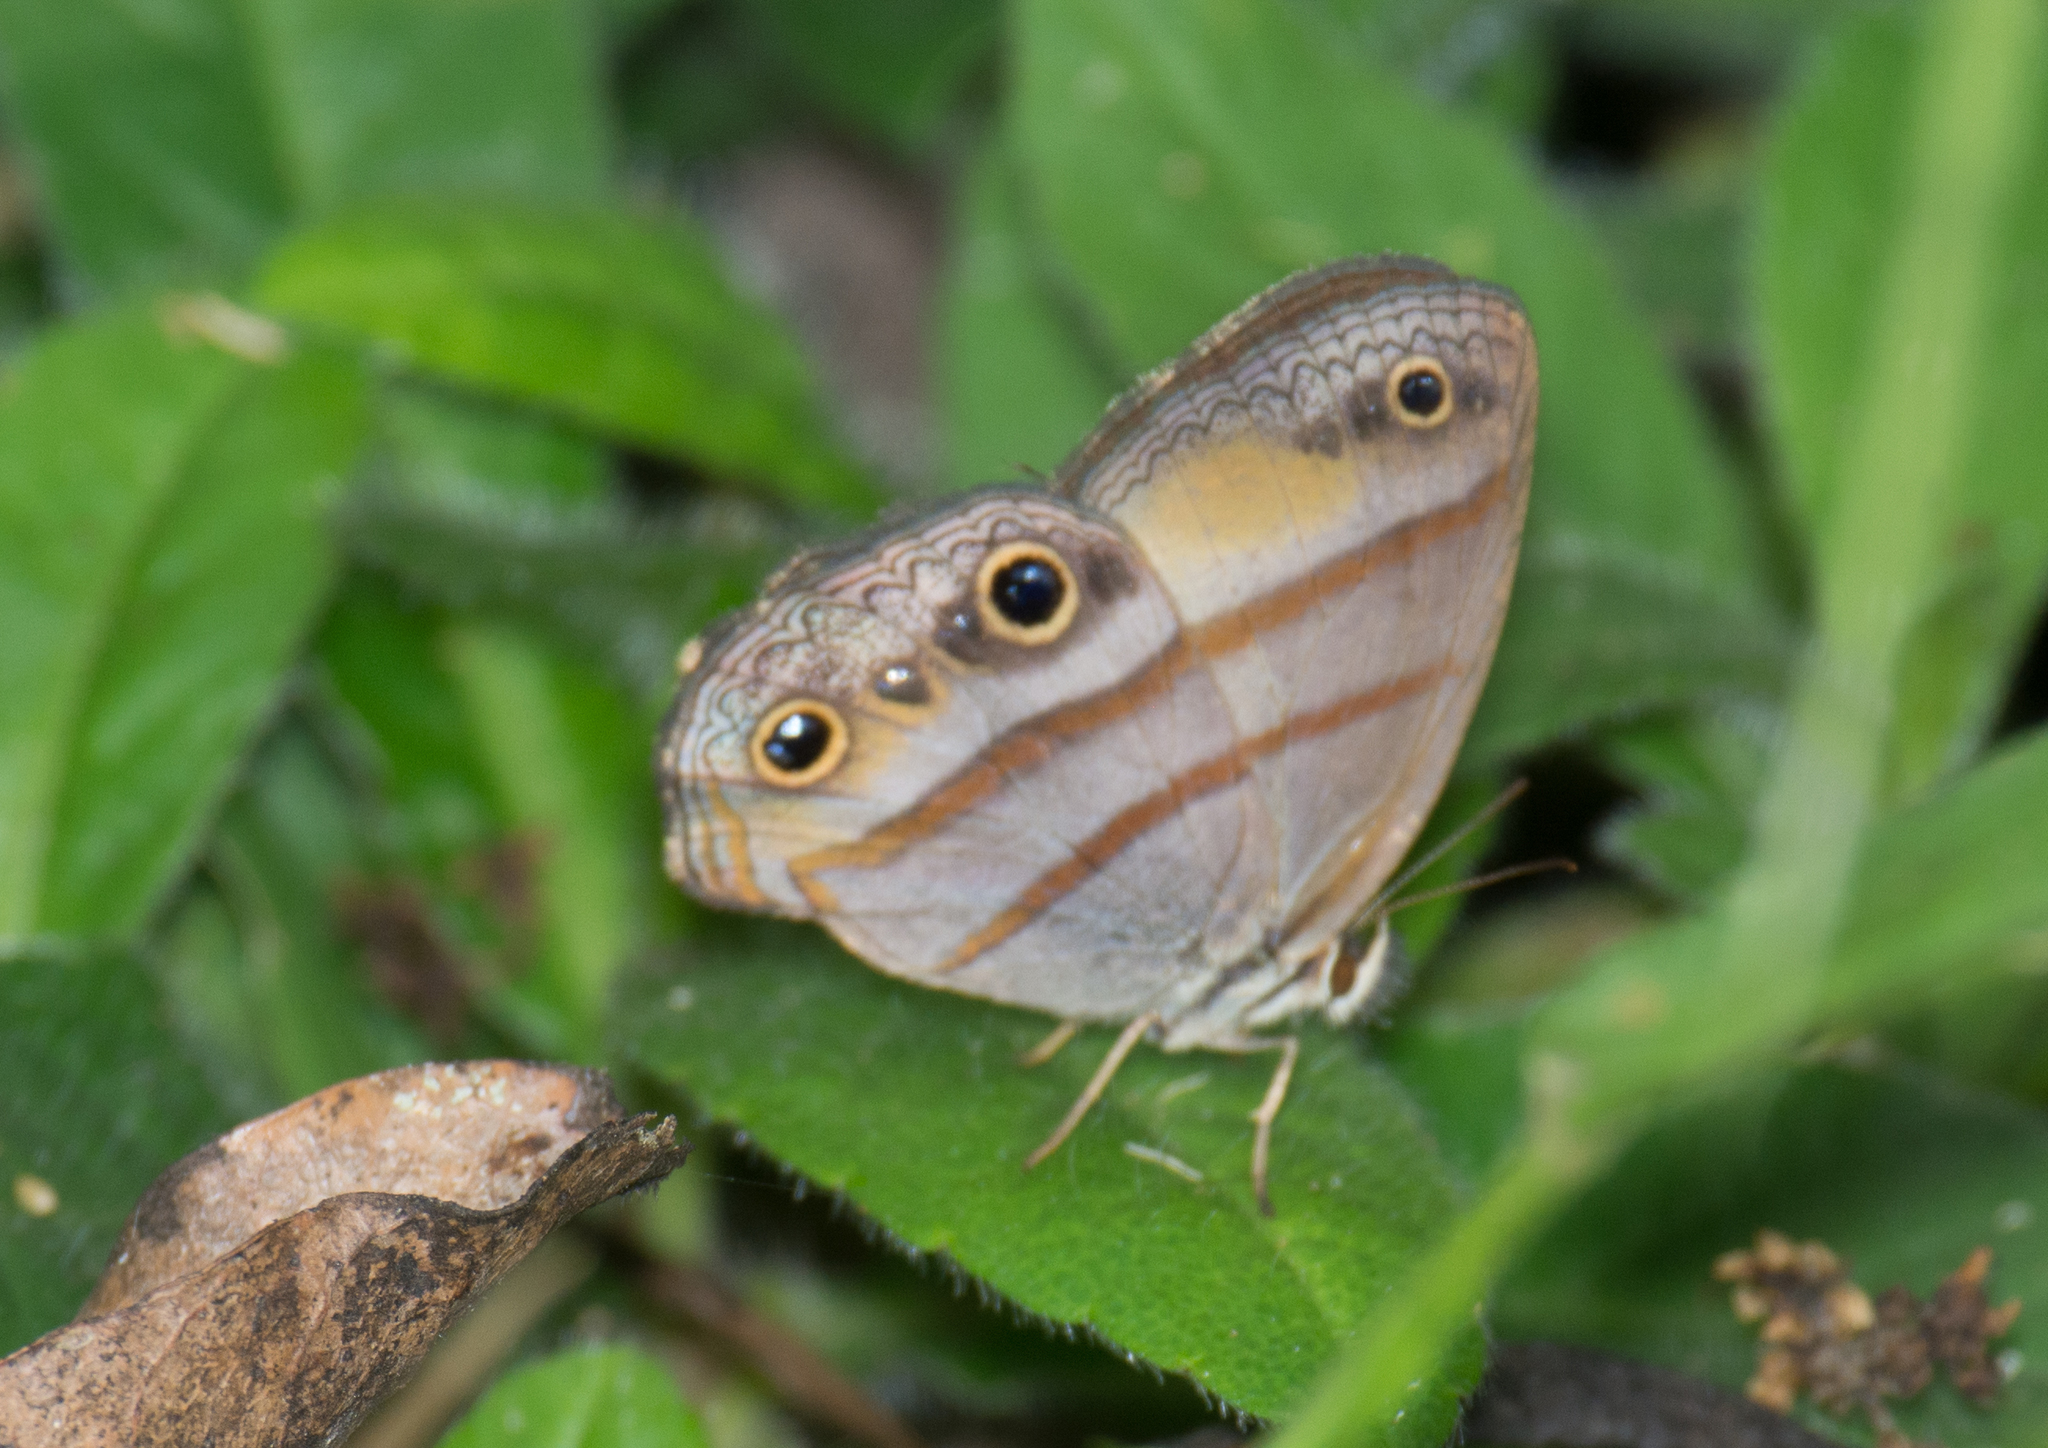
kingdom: Animalia
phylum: Arthropoda
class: Insecta
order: Lepidoptera
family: Nymphalidae
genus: Argyreuptychia
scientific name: Argyreuptychia penelope
